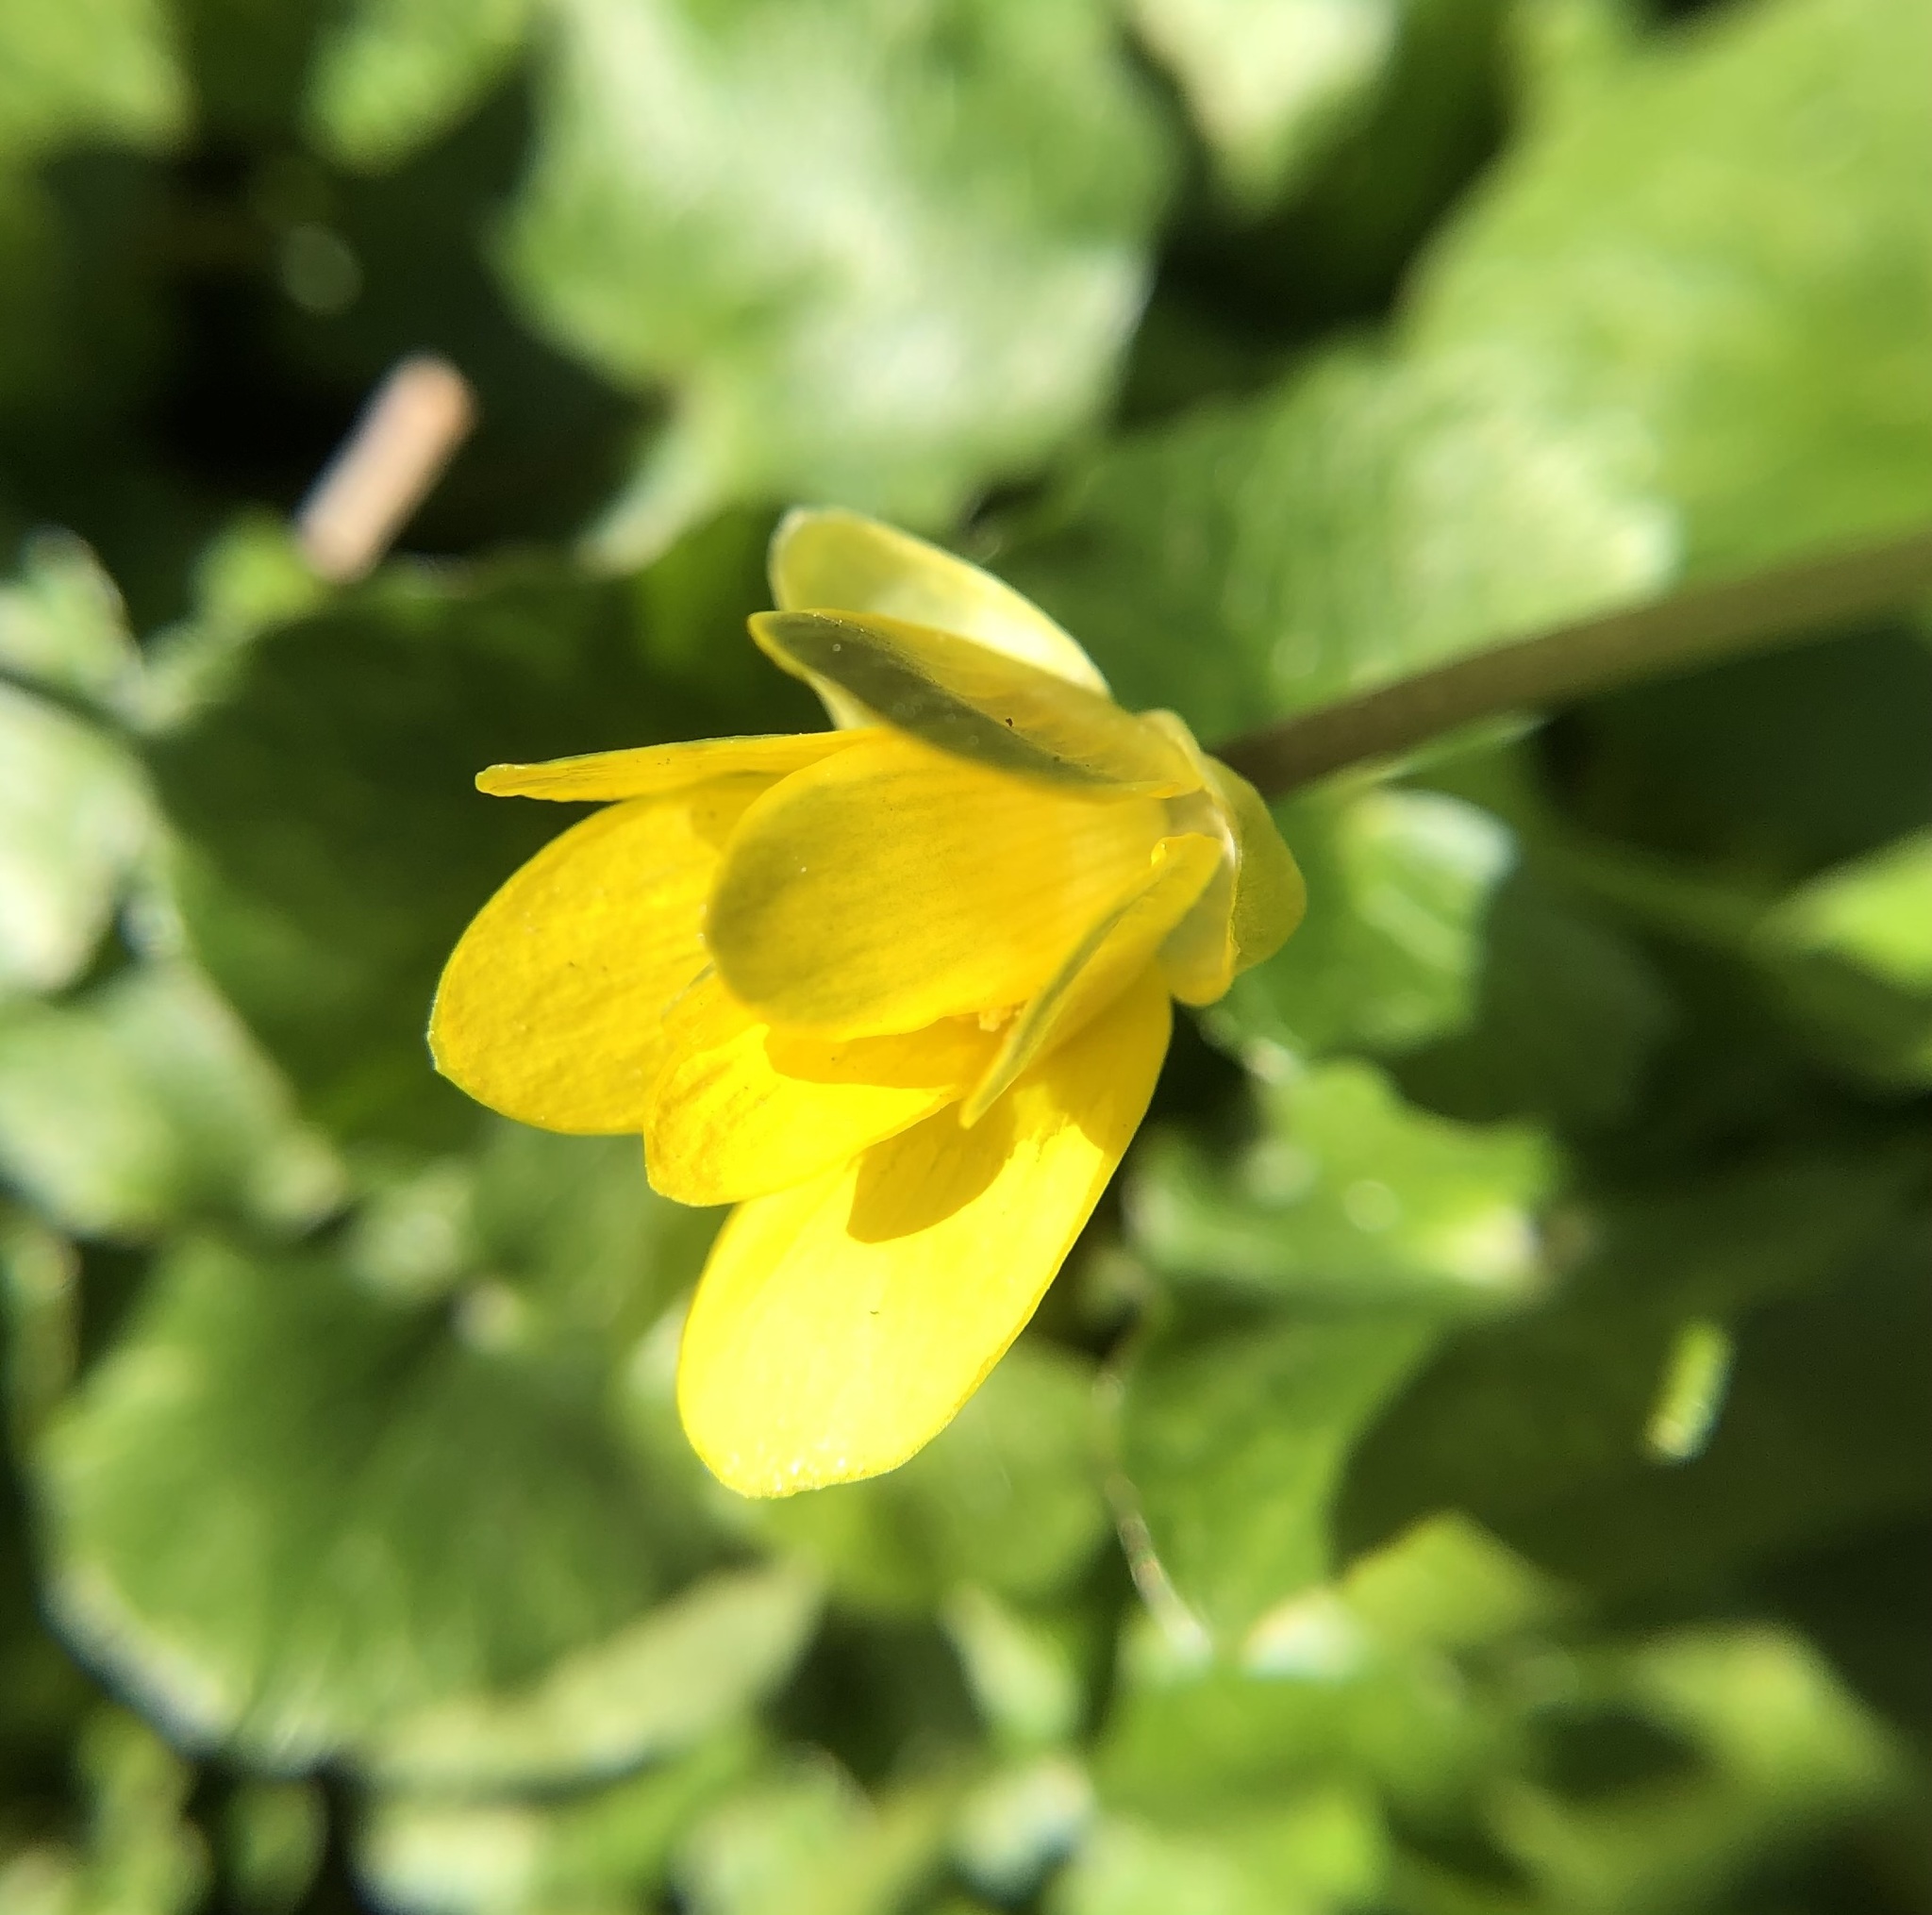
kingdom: Plantae
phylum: Tracheophyta
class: Magnoliopsida
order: Ranunculales
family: Ranunculaceae
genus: Ficaria
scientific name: Ficaria verna
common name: Lesser celandine
